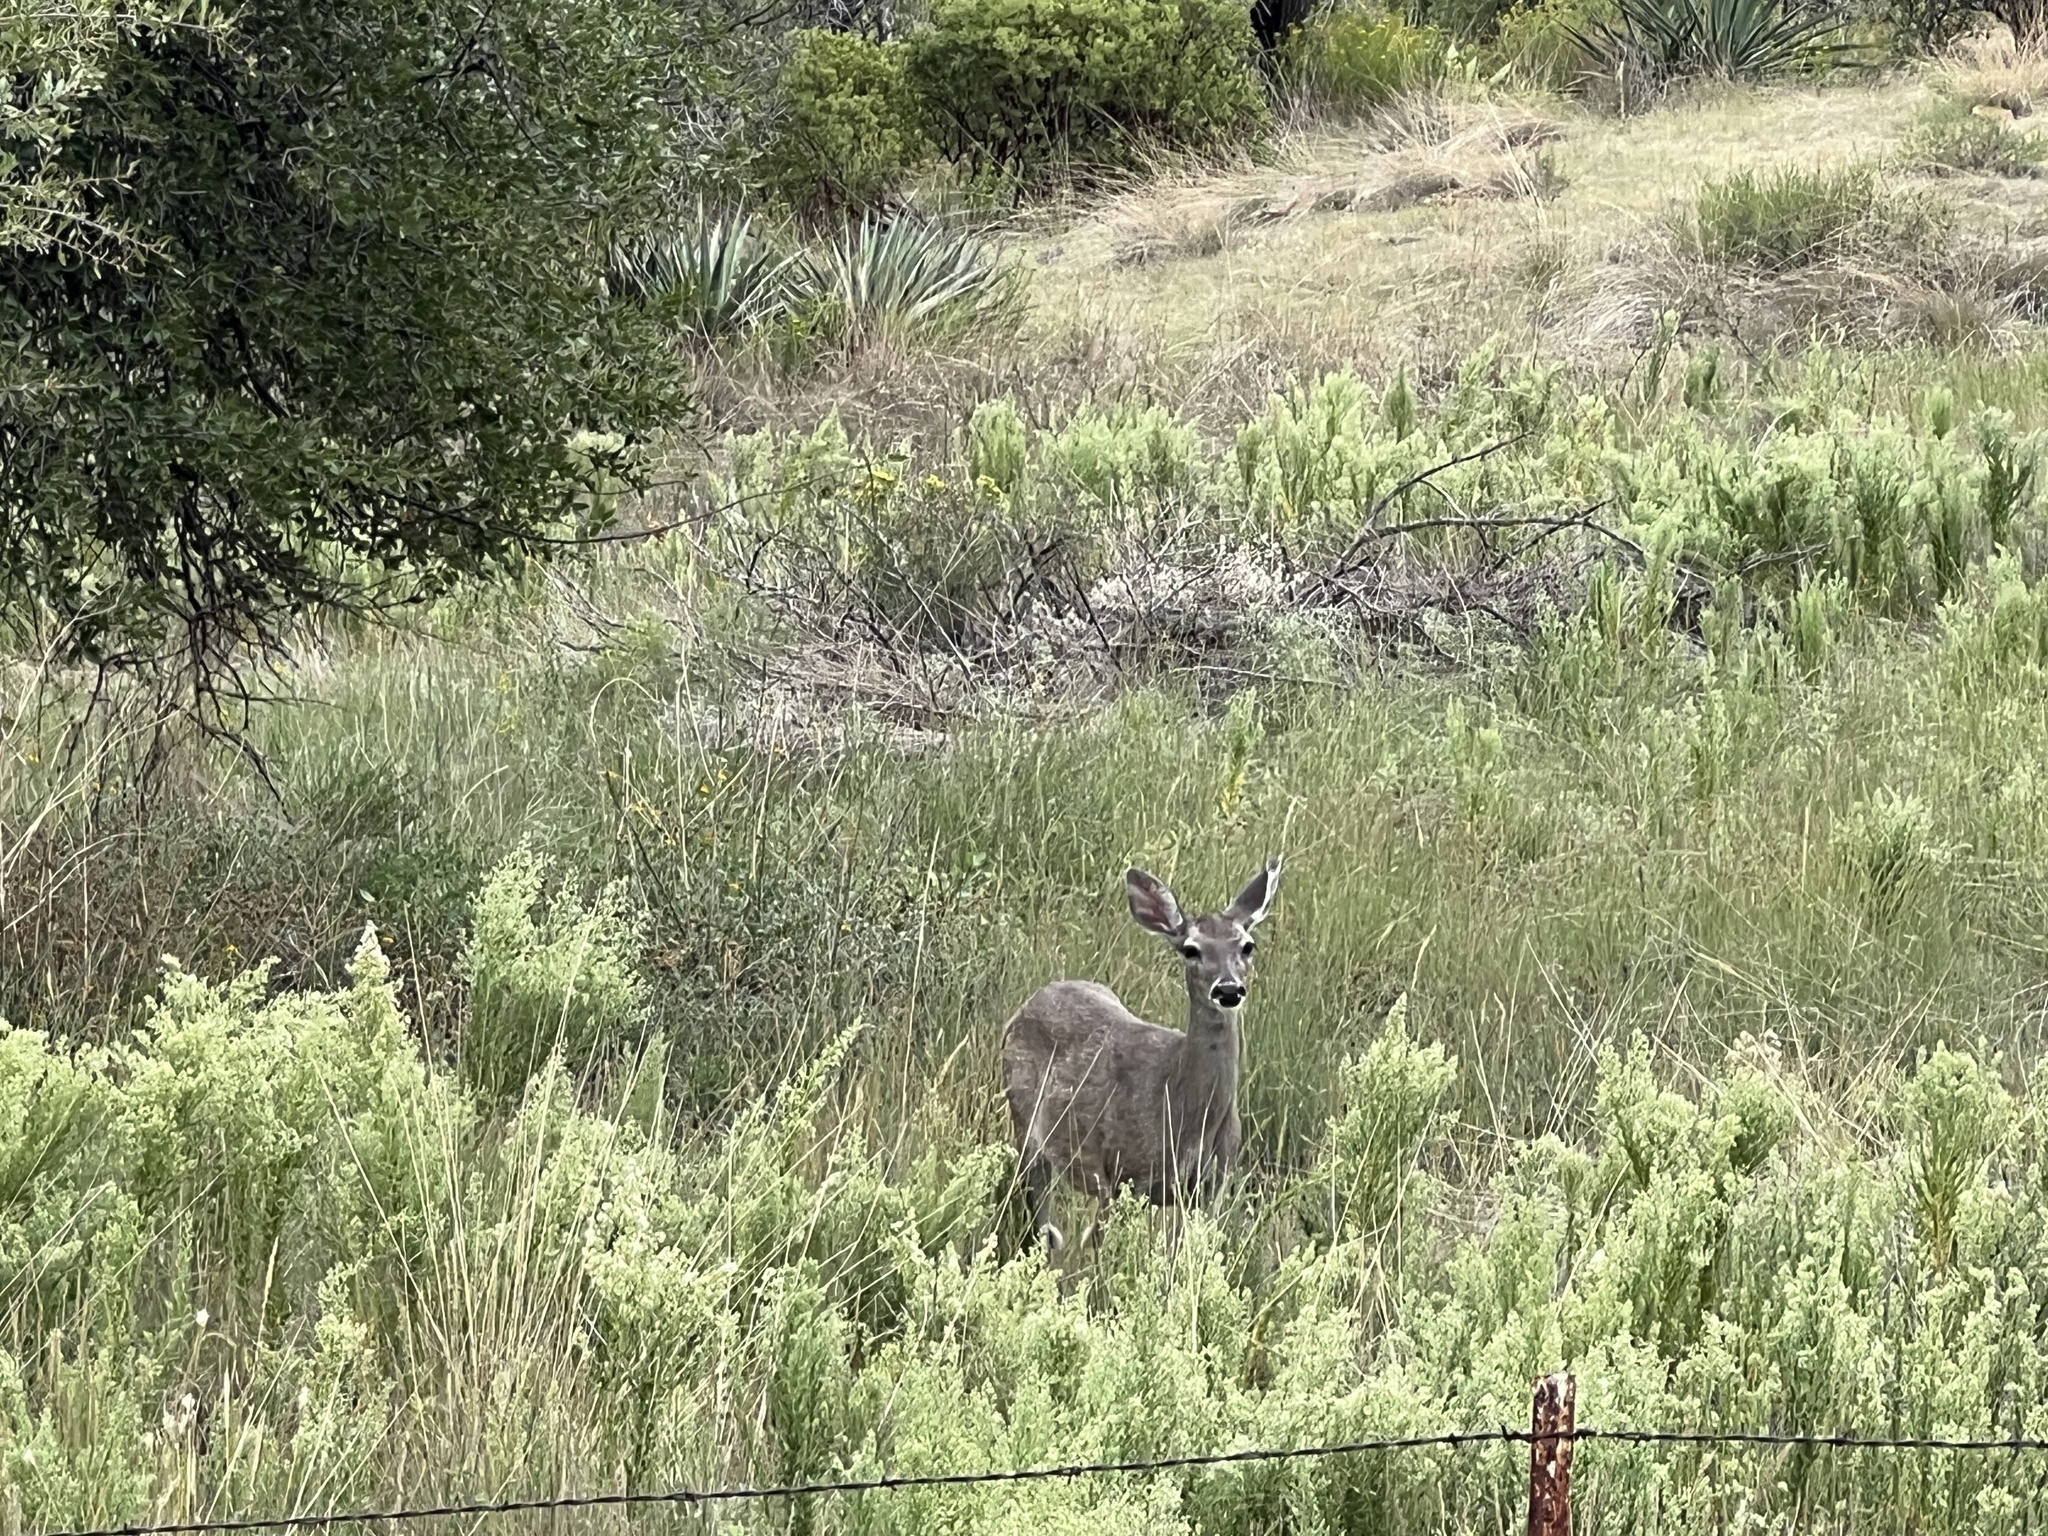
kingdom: Animalia
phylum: Chordata
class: Mammalia
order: Artiodactyla
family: Cervidae
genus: Odocoileus
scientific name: Odocoileus hemionus
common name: Mule deer
